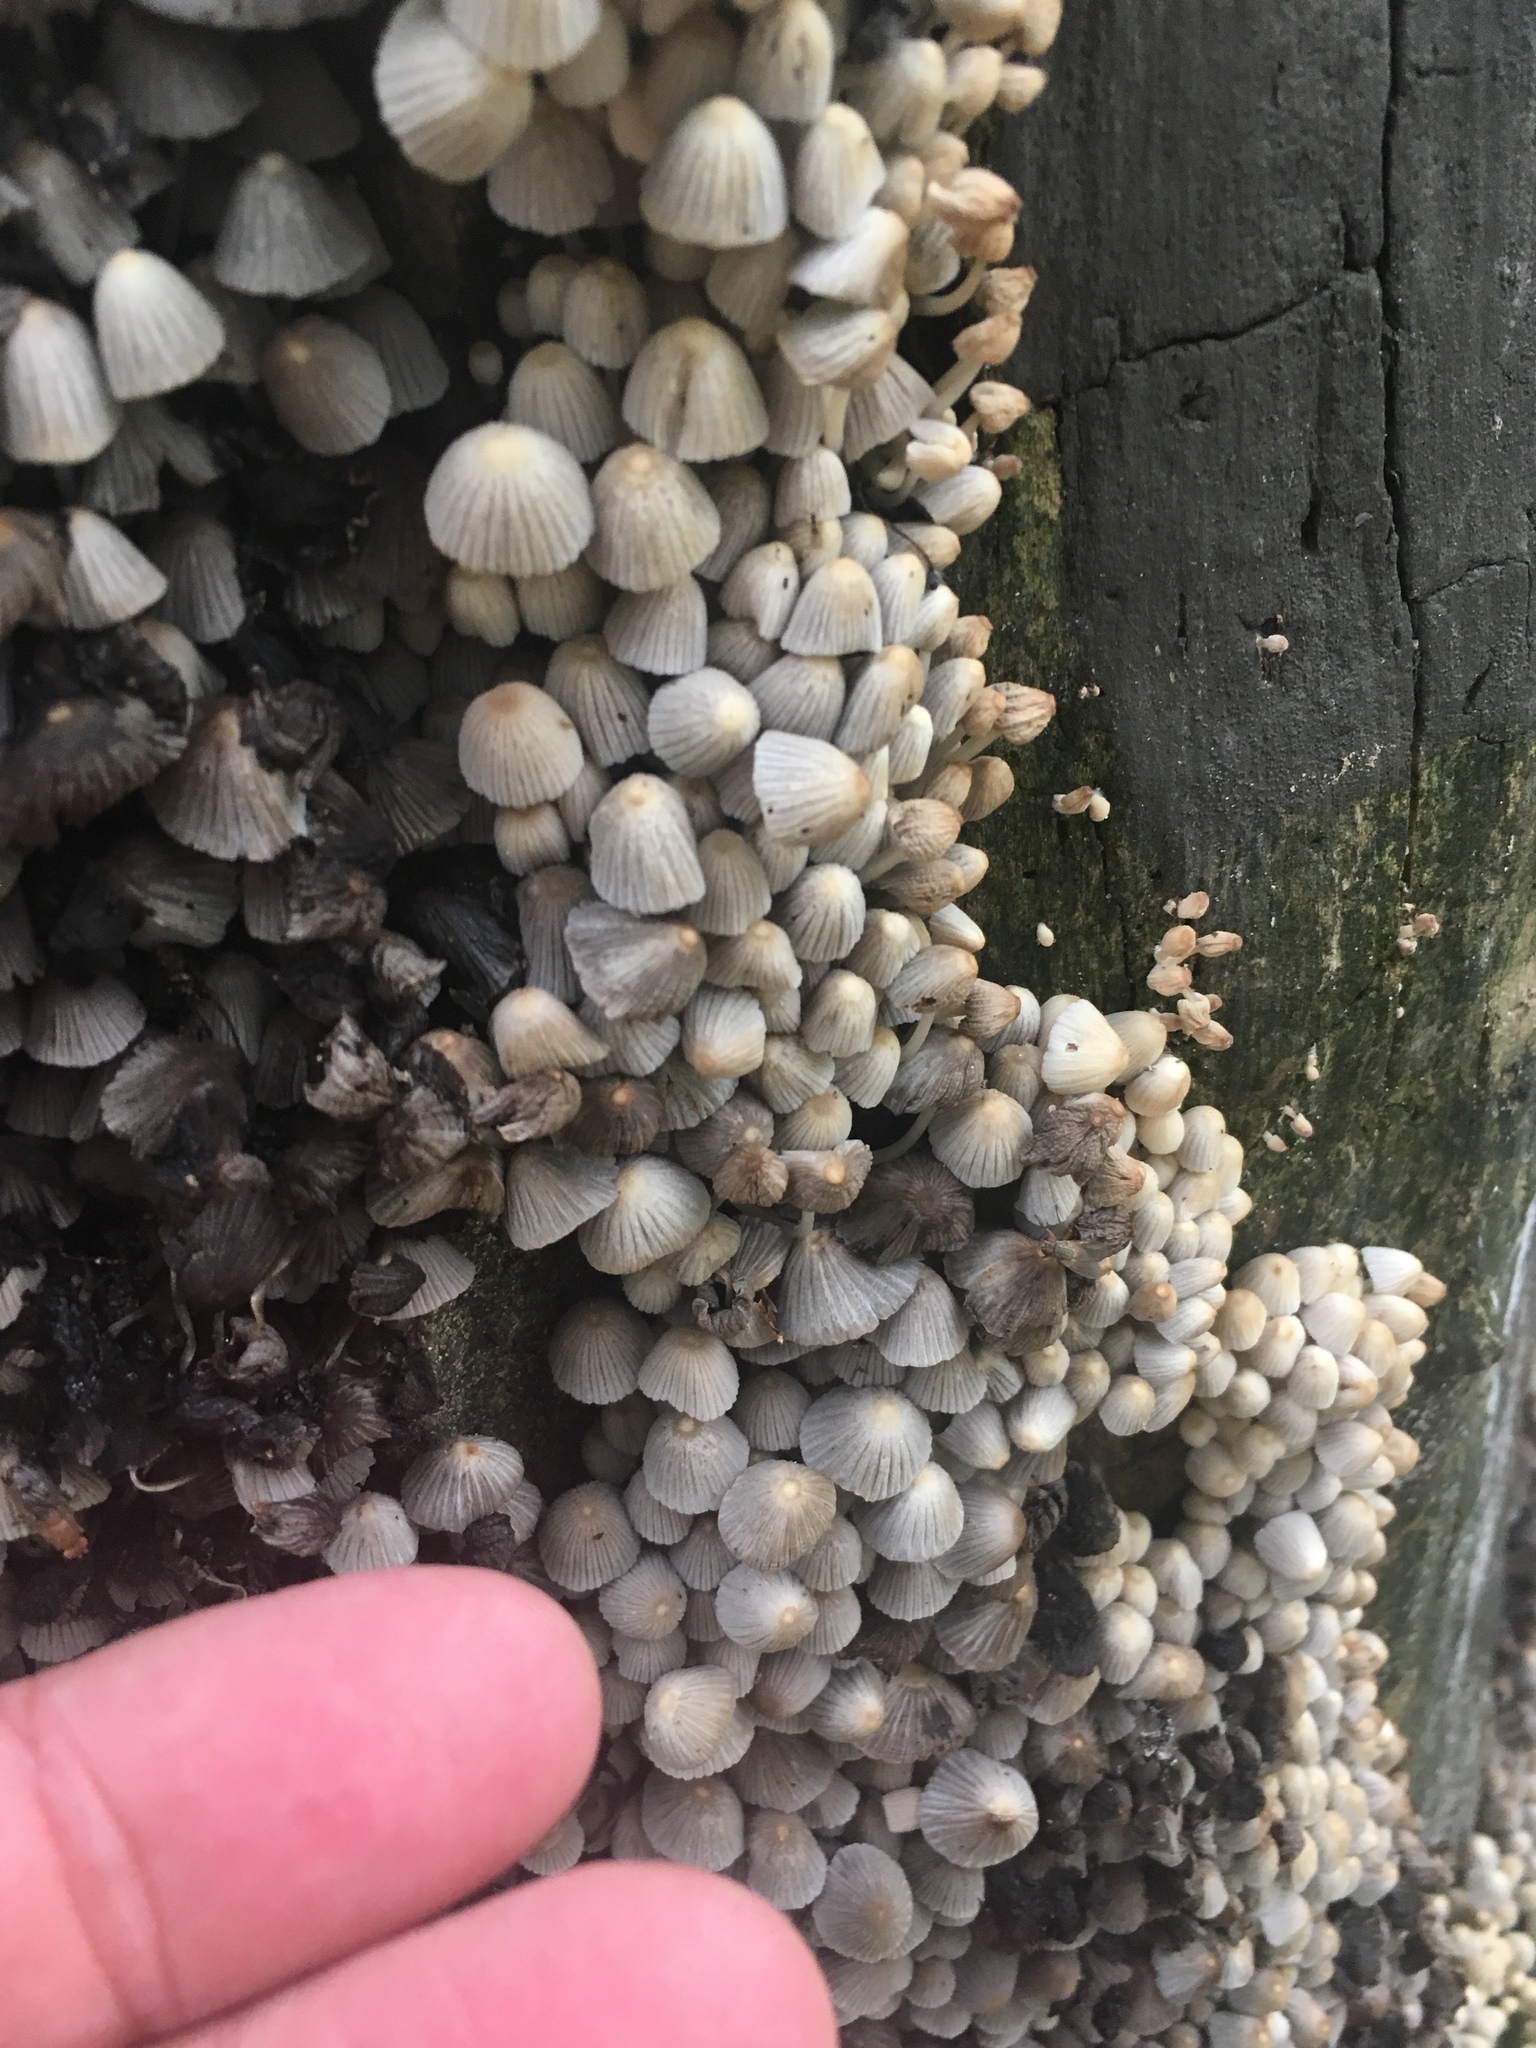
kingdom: Fungi
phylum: Basidiomycota
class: Agaricomycetes
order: Agaricales
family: Psathyrellaceae
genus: Coprinellus
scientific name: Coprinellus disseminatus
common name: Fairies' bonnets
